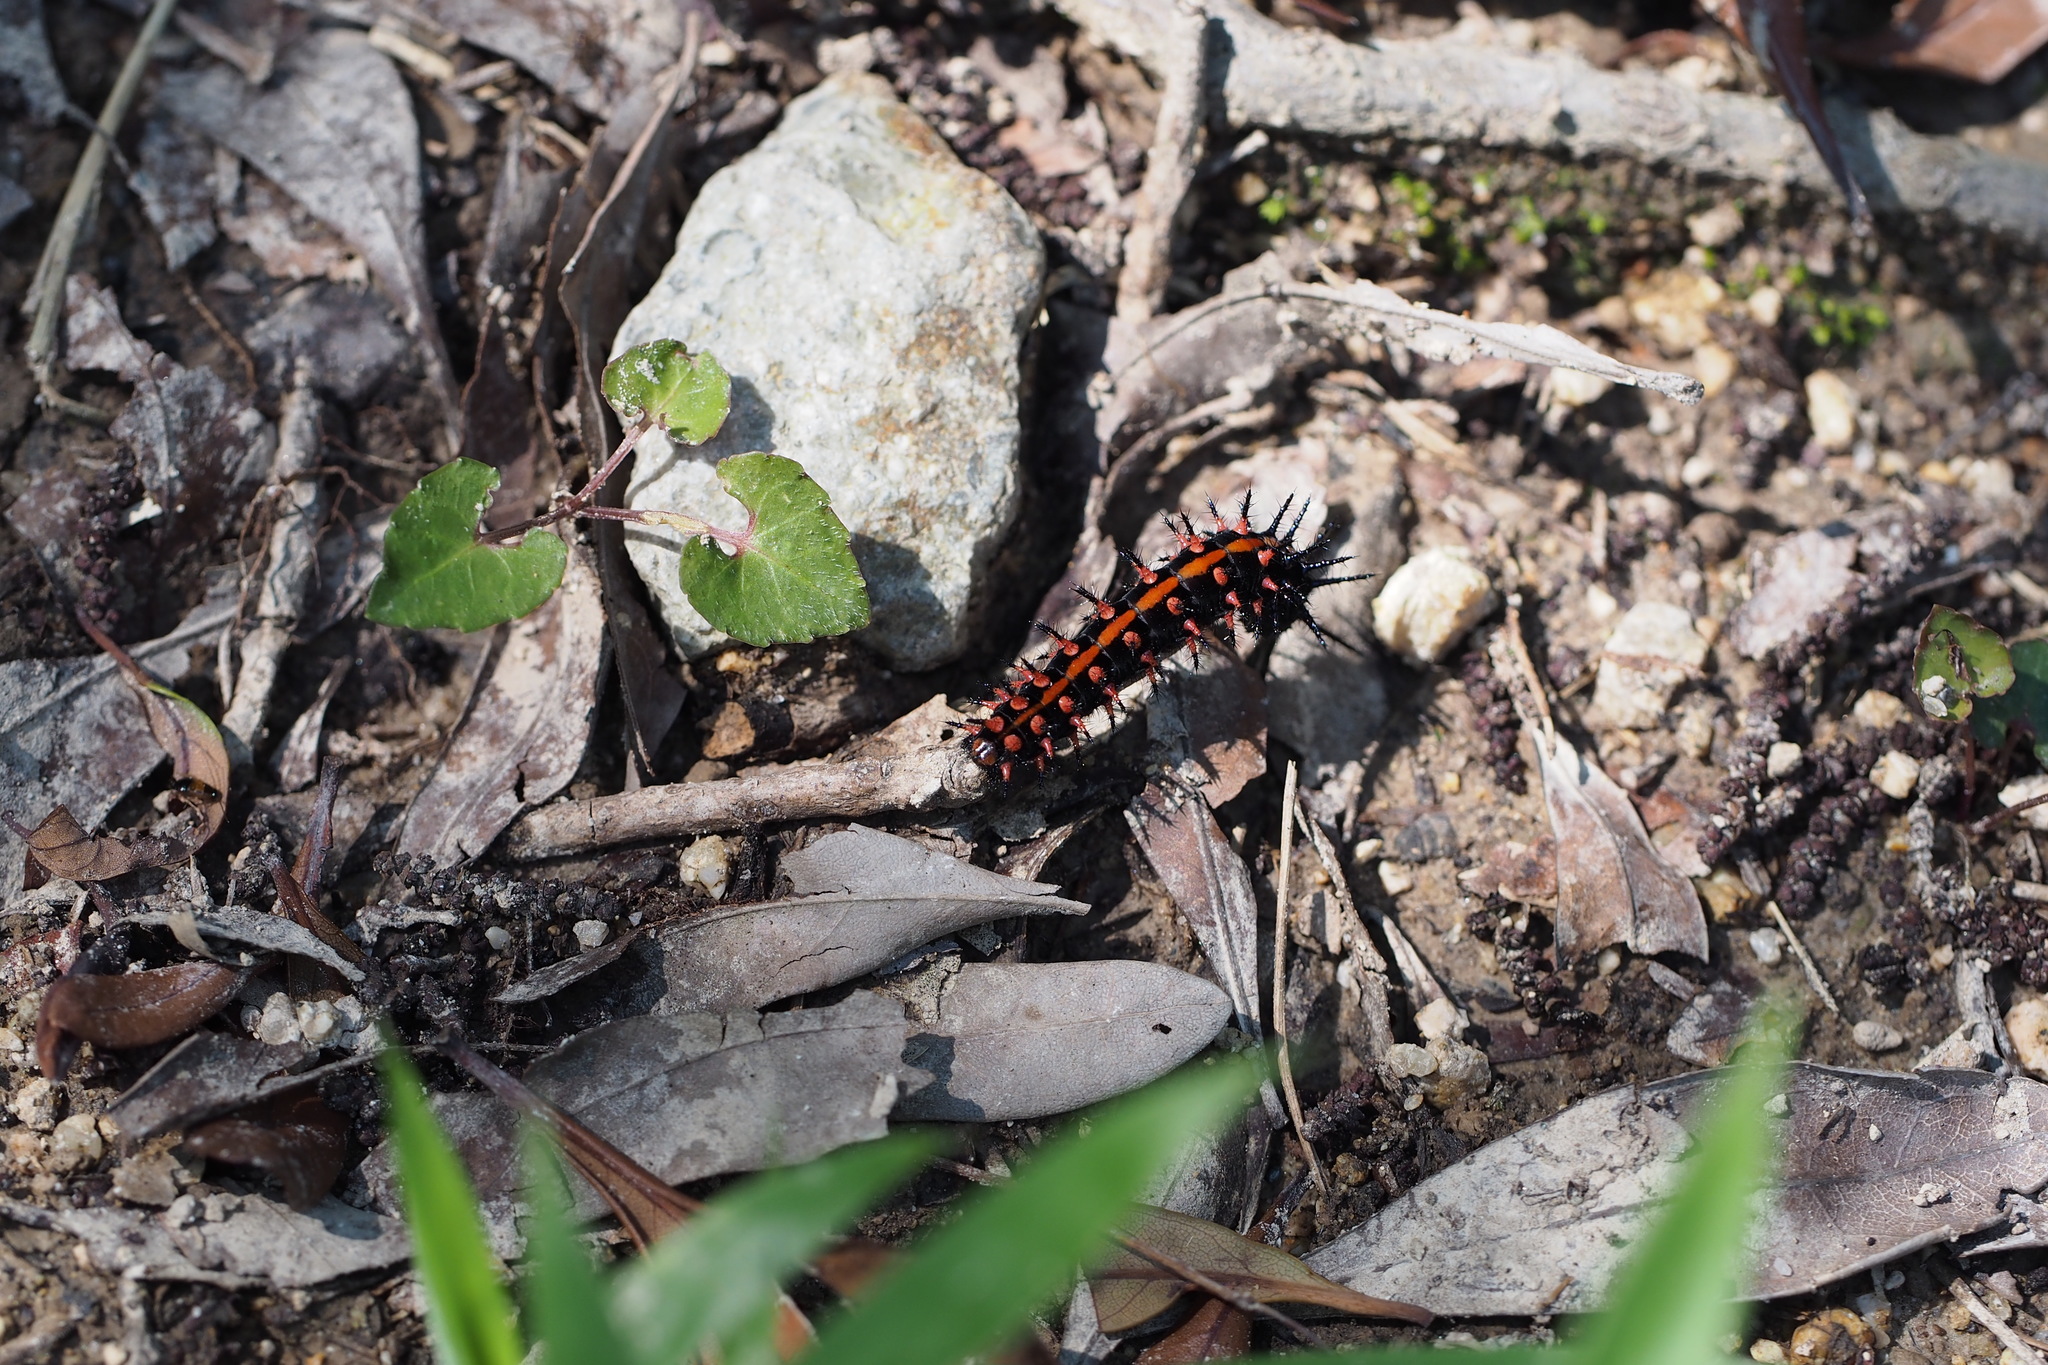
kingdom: Animalia
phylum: Arthropoda
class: Insecta
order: Lepidoptera
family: Nymphalidae
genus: Argynnis
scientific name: Argynnis hyperbius
